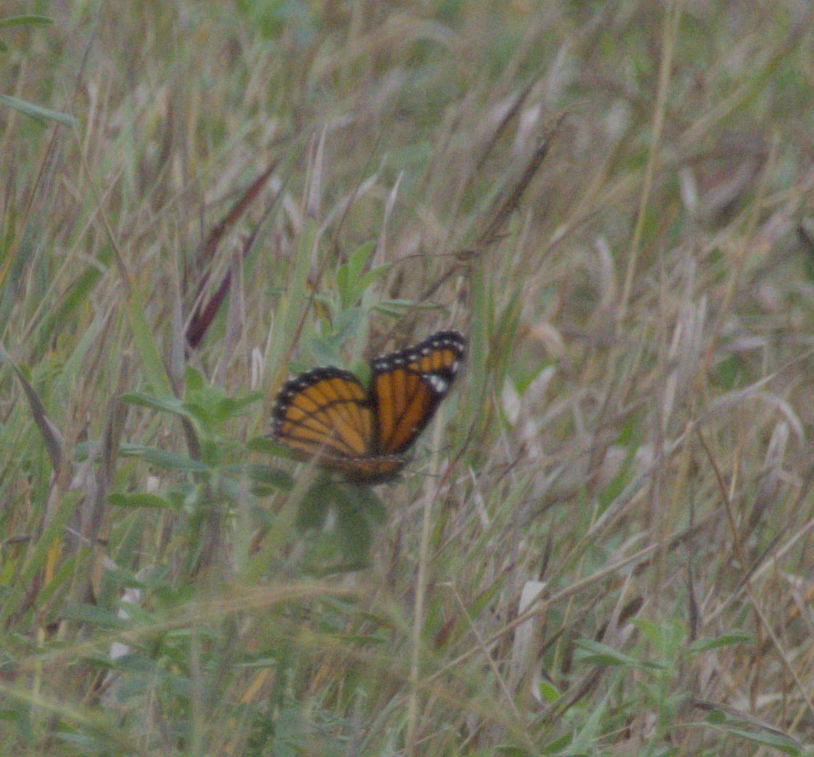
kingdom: Animalia
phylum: Arthropoda
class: Insecta
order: Lepidoptera
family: Nymphalidae
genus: Limenitis
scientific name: Limenitis archippus
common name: Viceroy
